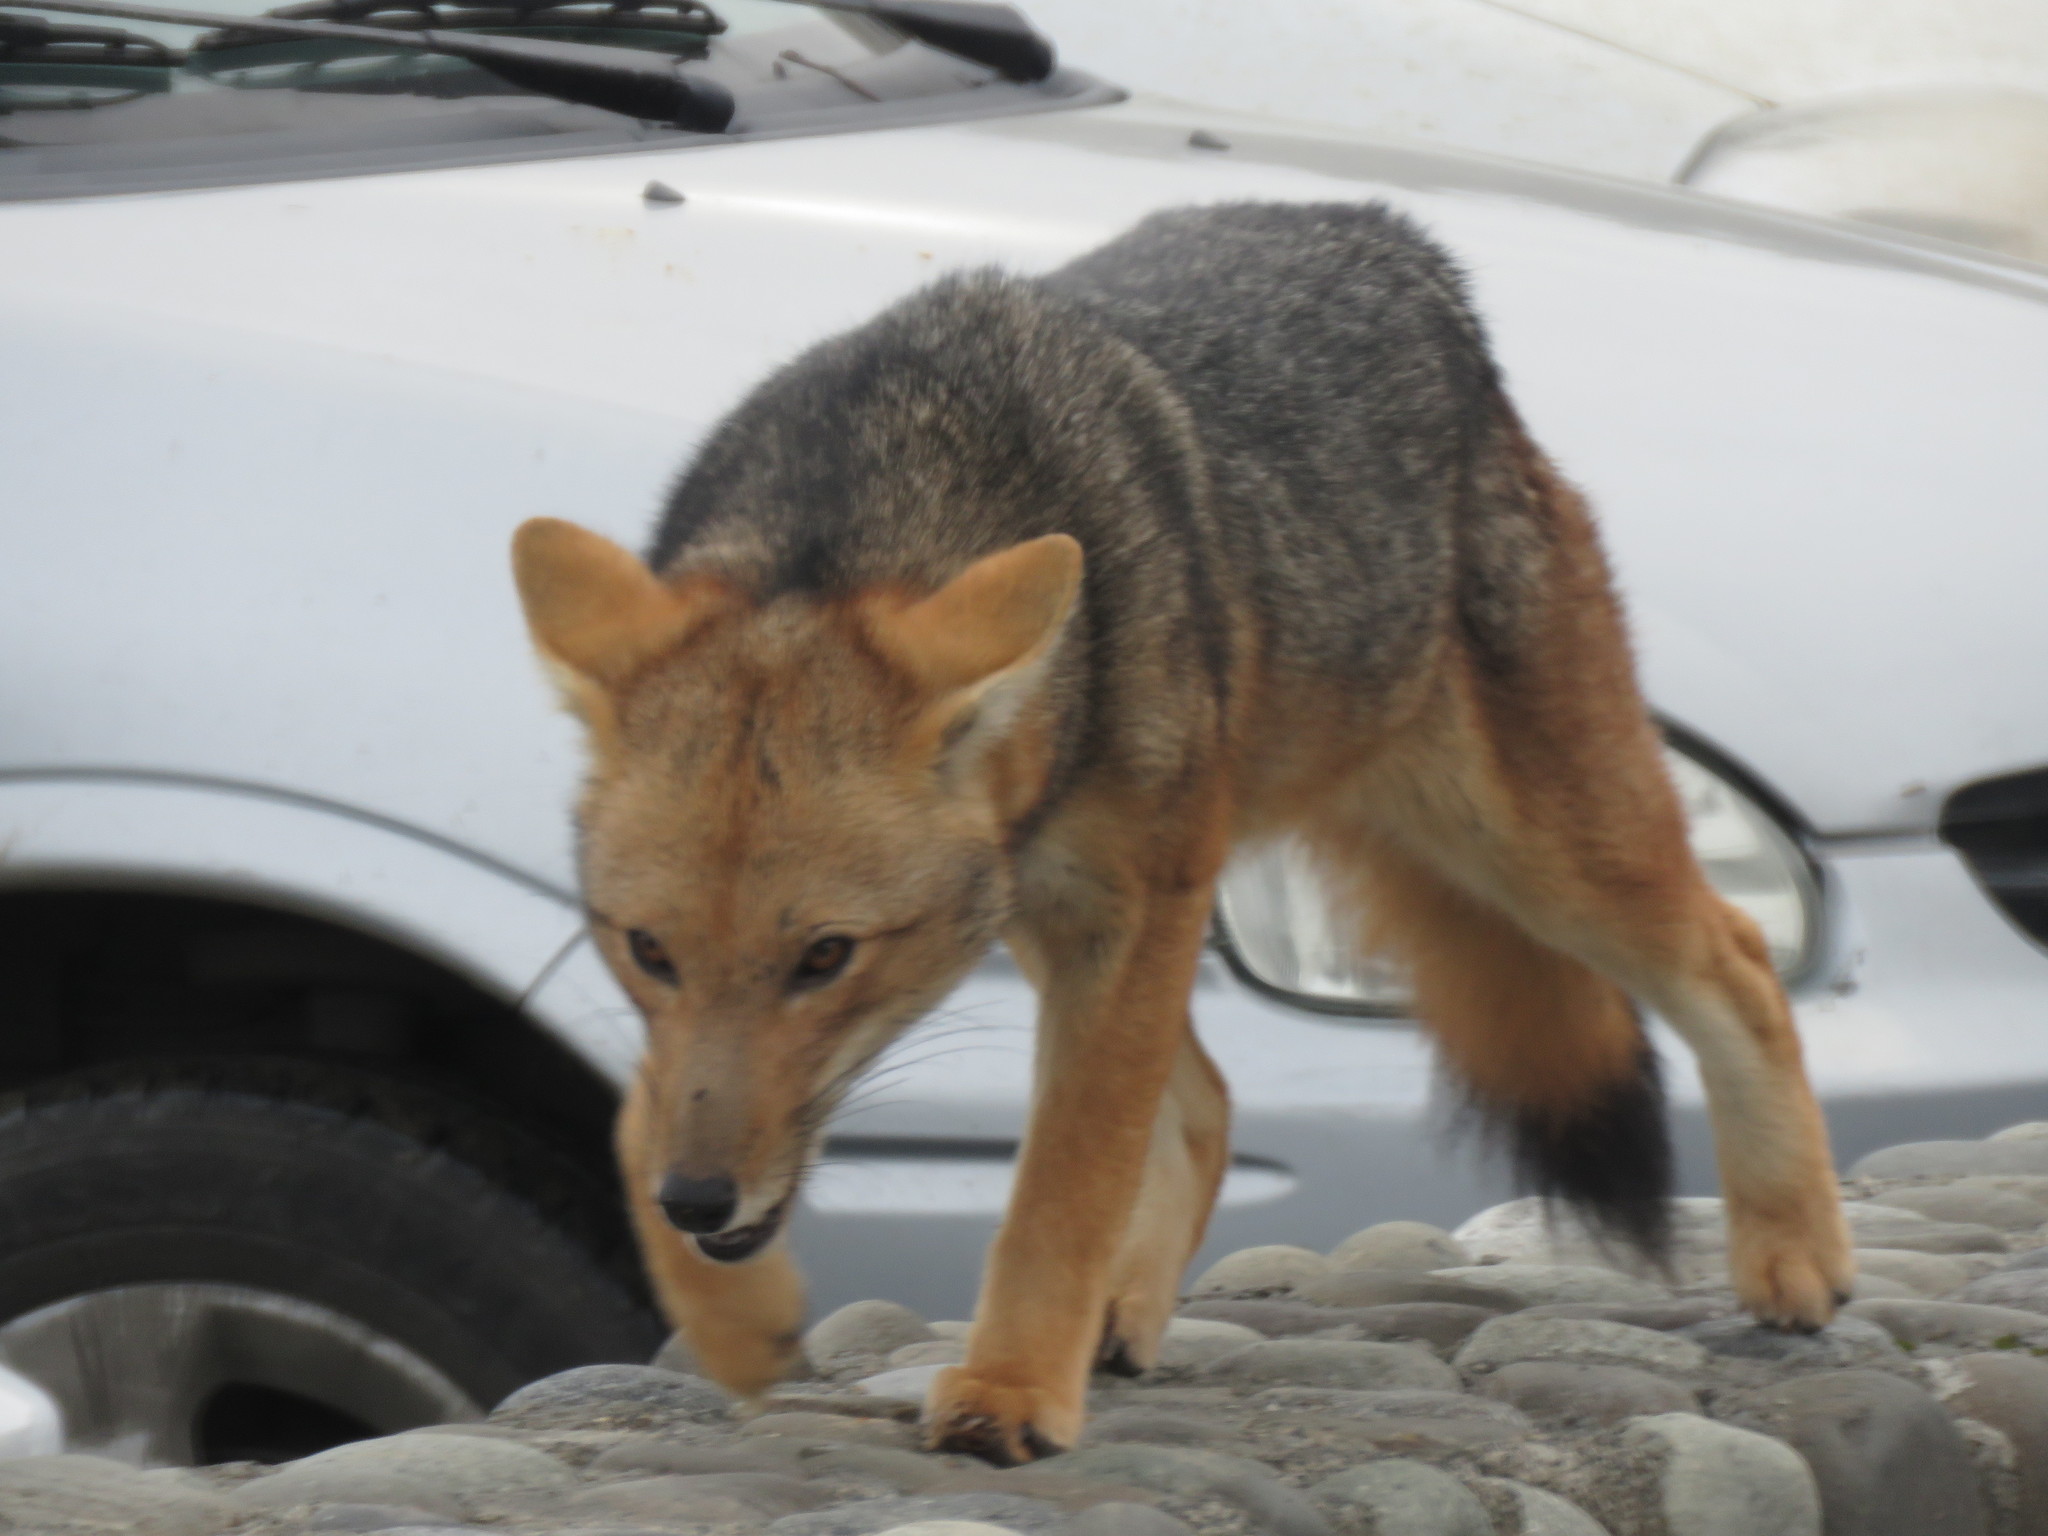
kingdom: Animalia
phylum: Chordata
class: Mammalia
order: Carnivora
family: Canidae
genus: Lycalopex
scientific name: Lycalopex culpaeus
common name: Culpeo
